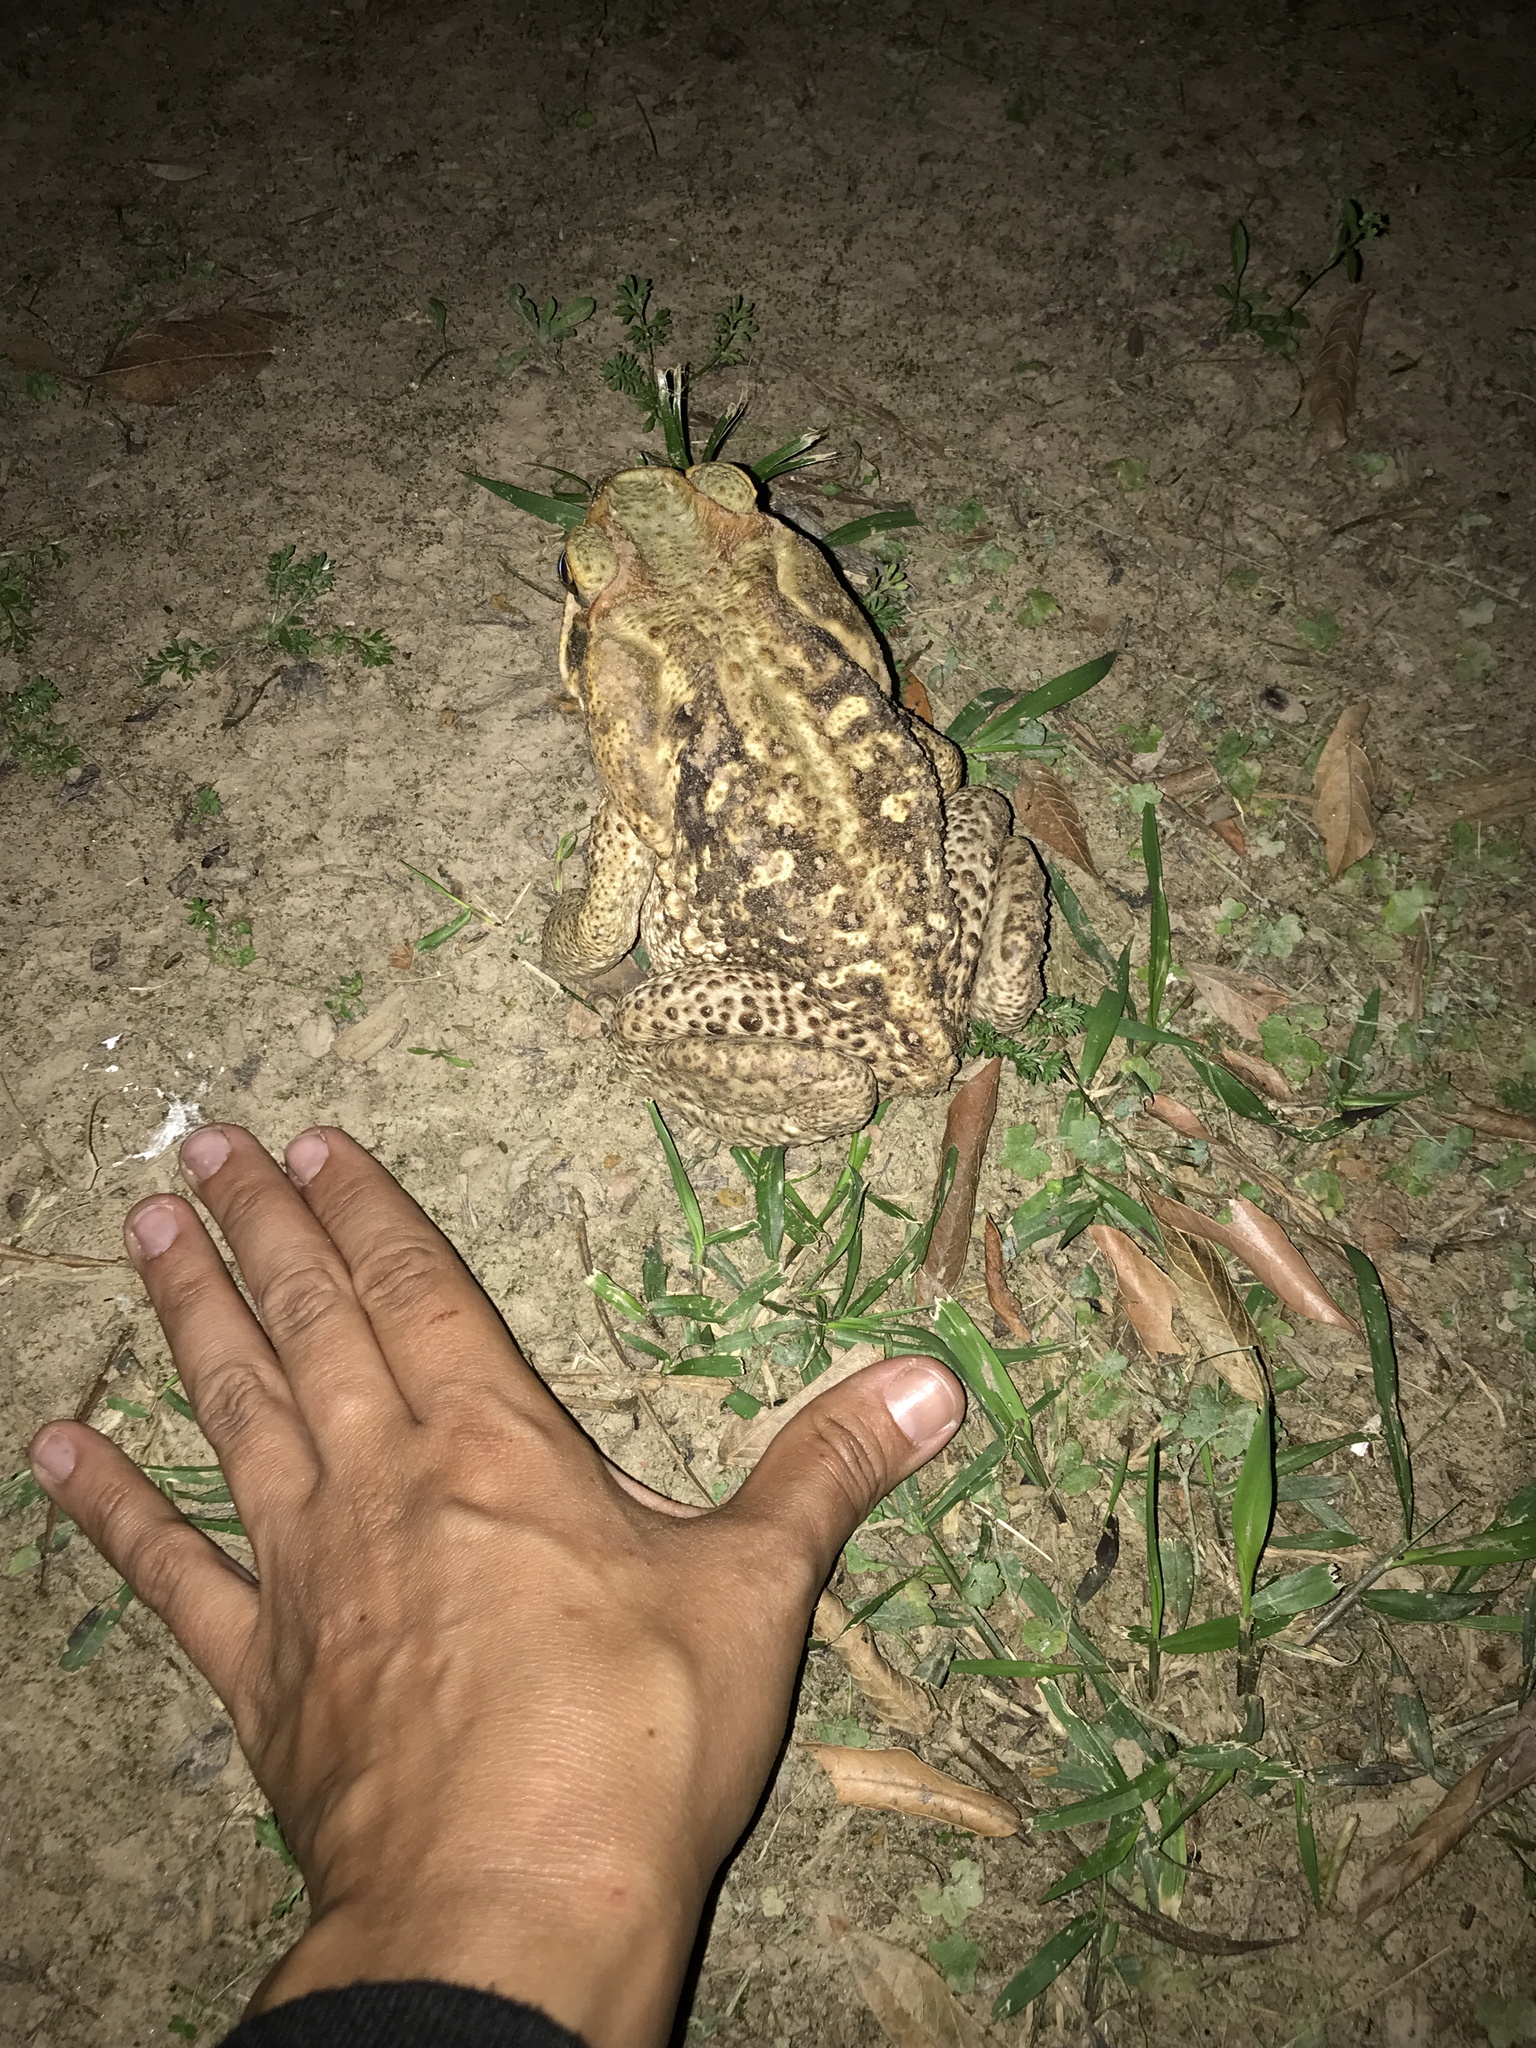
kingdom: Animalia
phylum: Chordata
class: Amphibia
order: Anura
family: Bufonidae
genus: Rhinella
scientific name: Rhinella diptycha
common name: Cope's toad
